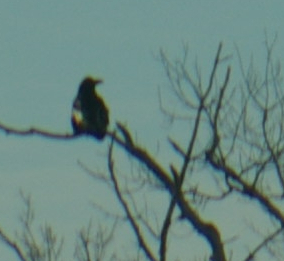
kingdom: Animalia
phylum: Chordata
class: Aves
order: Passeriformes
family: Corvidae
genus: Corvus
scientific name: Corvus corax
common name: Common raven
